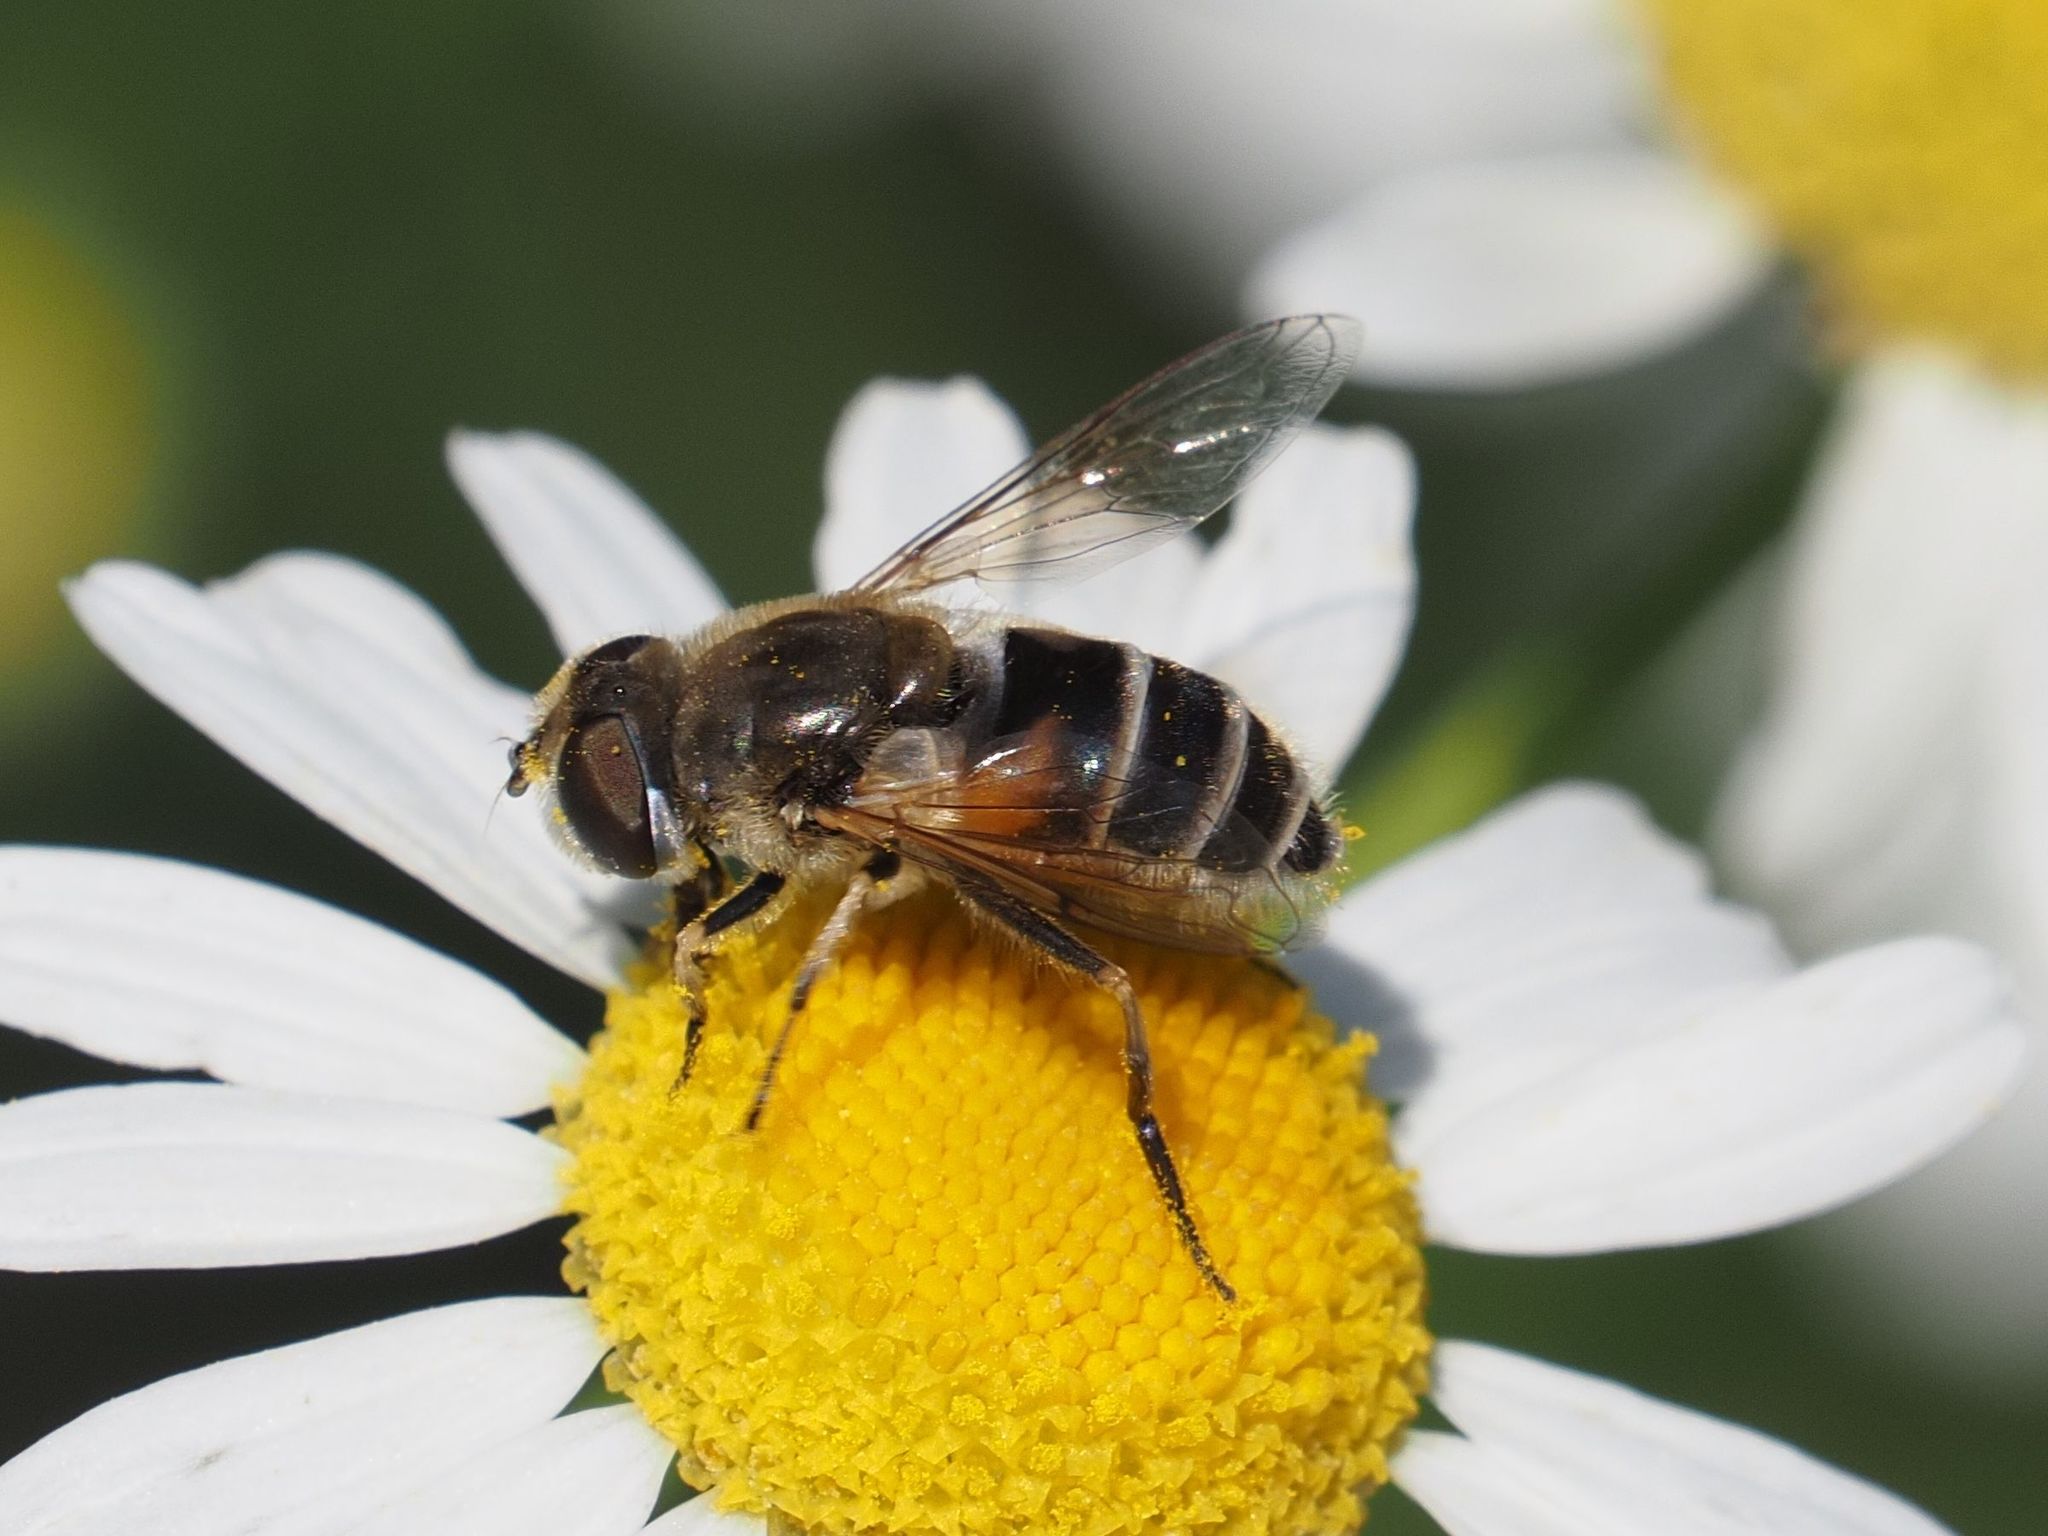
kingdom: Animalia
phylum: Arthropoda
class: Insecta
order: Diptera
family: Syrphidae
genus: Eristalis
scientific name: Eristalis arbustorum
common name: Hover fly
